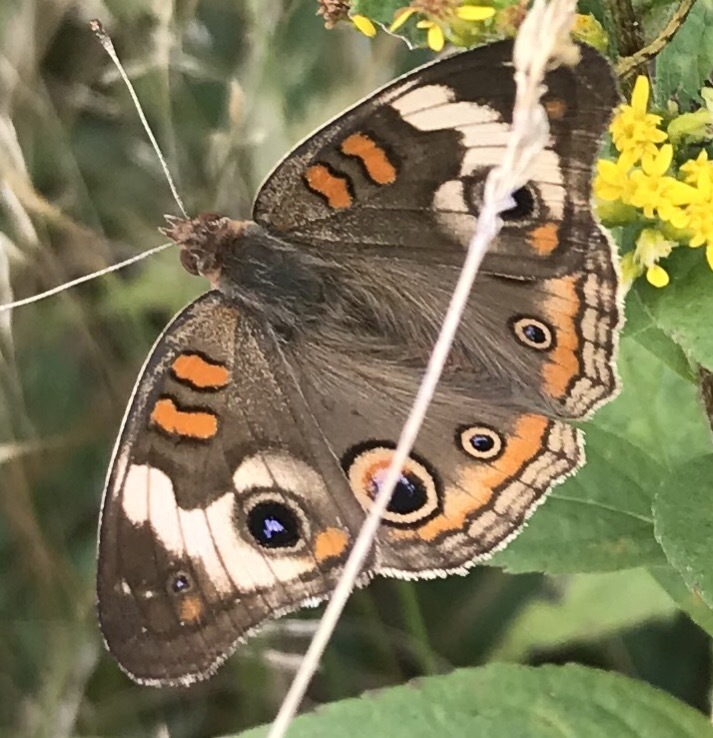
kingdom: Animalia
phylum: Arthropoda
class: Insecta
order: Lepidoptera
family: Nymphalidae
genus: Junonia
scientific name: Junonia coenia
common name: Common buckeye
